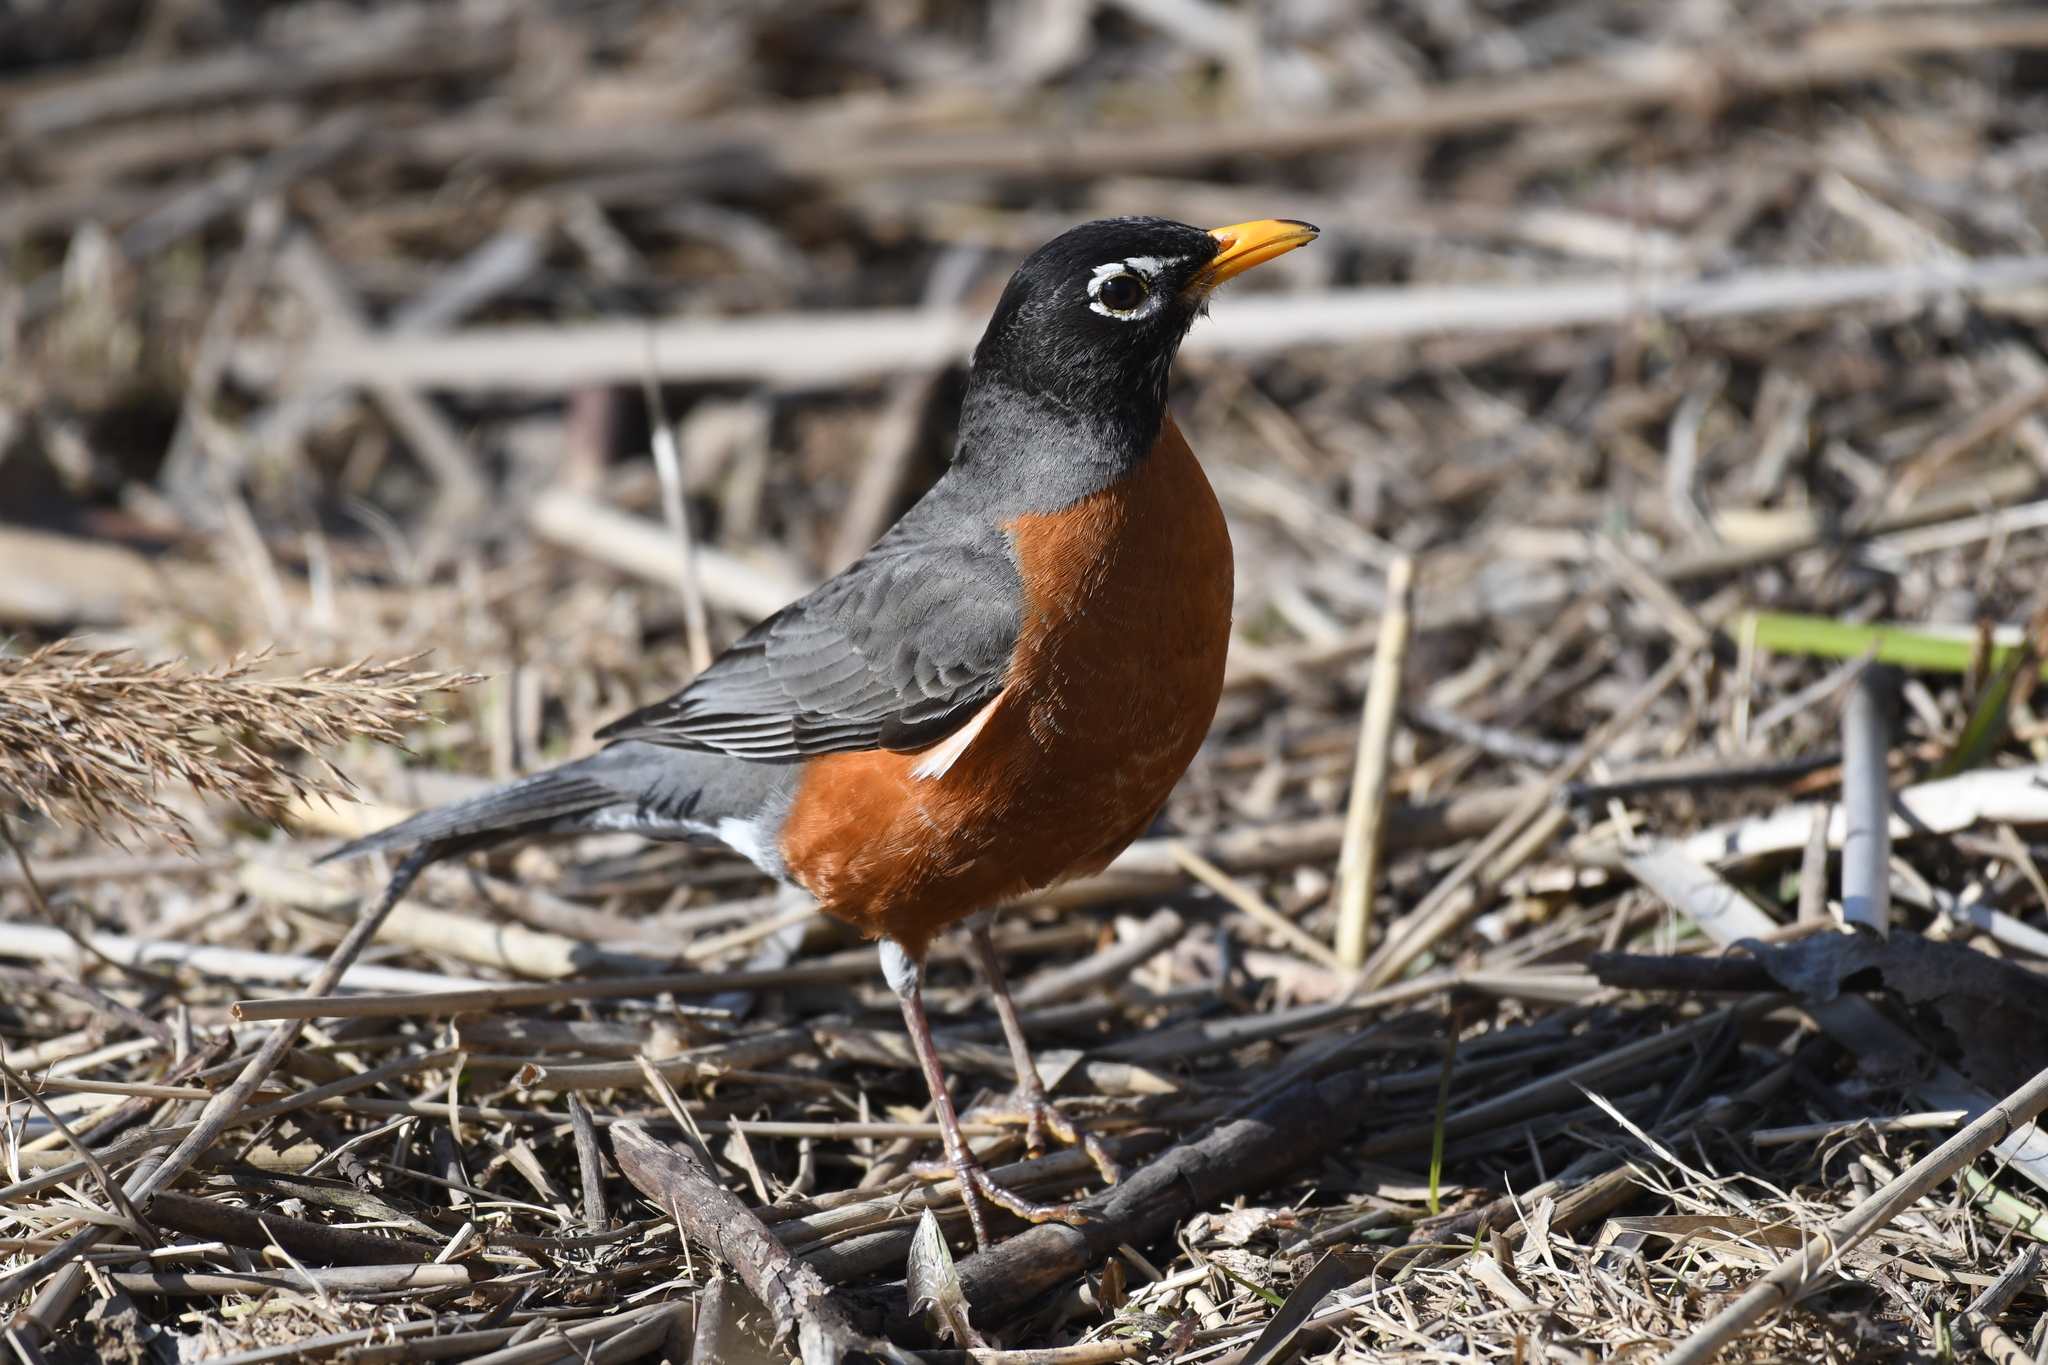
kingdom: Animalia
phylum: Chordata
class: Aves
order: Passeriformes
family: Turdidae
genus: Turdus
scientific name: Turdus migratorius
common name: American robin
